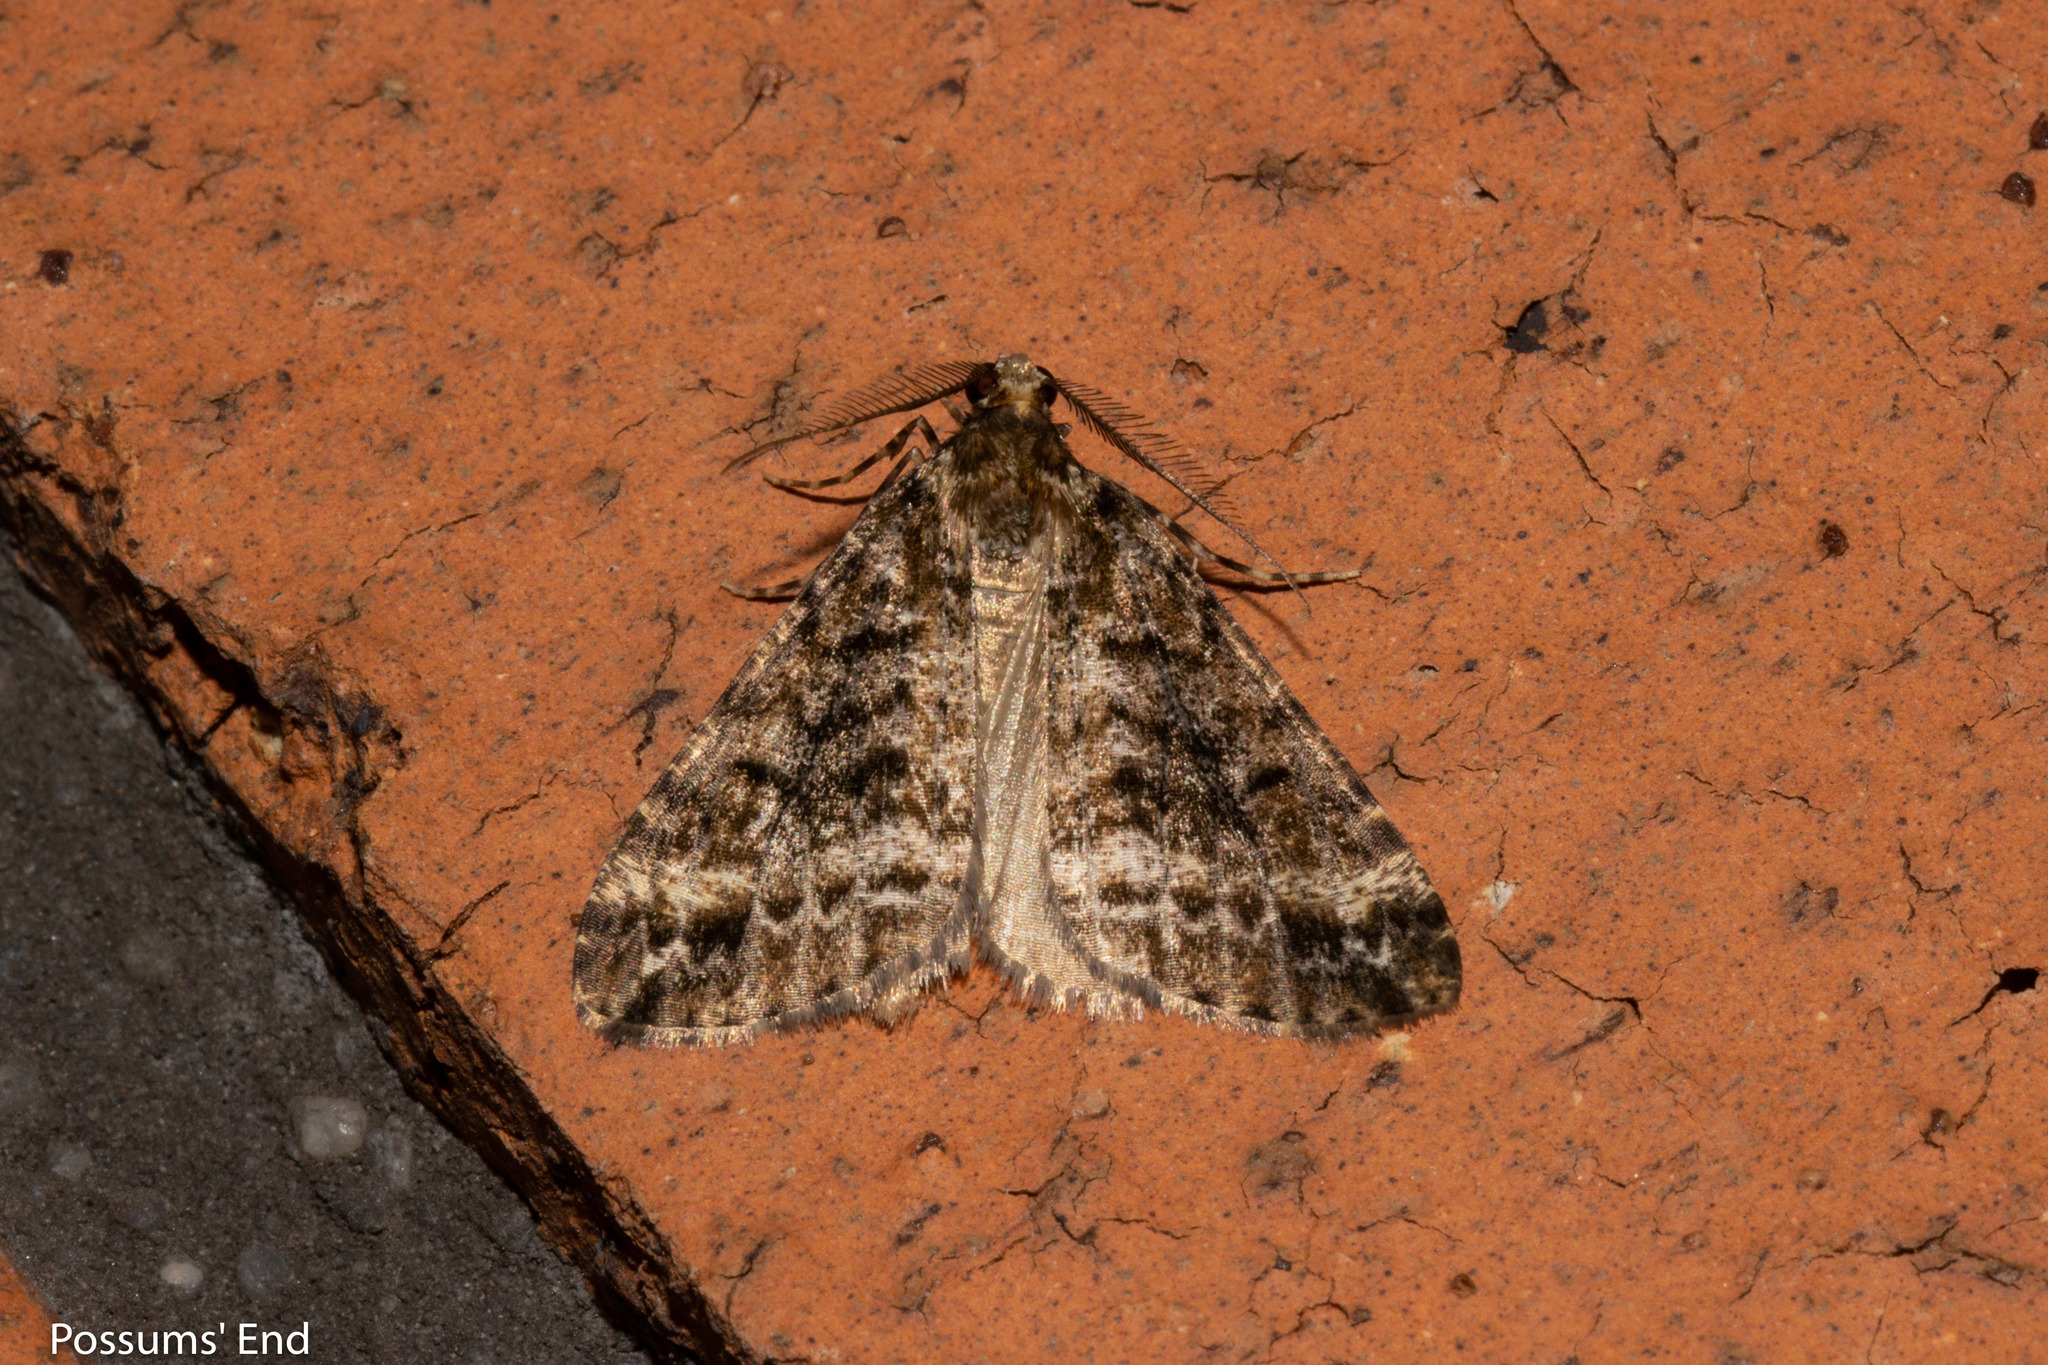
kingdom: Animalia
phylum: Arthropoda
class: Insecta
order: Lepidoptera
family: Geometridae
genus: Pseudocoremia
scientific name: Pseudocoremia lactiflua
